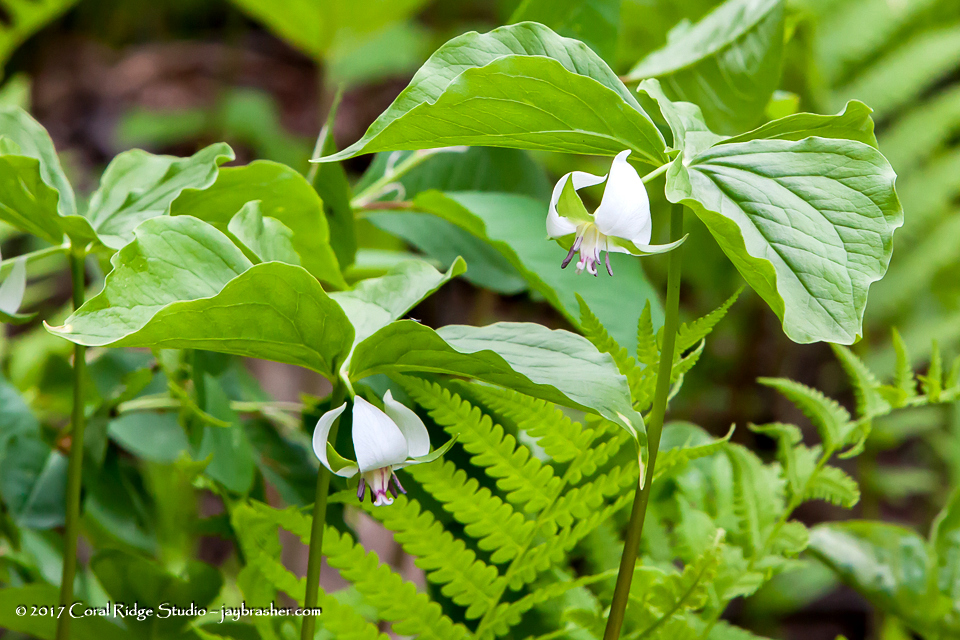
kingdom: Plantae
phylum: Tracheophyta
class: Liliopsida
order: Liliales
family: Melanthiaceae
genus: Trillium
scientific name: Trillium cernuum
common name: Nodding trillium
